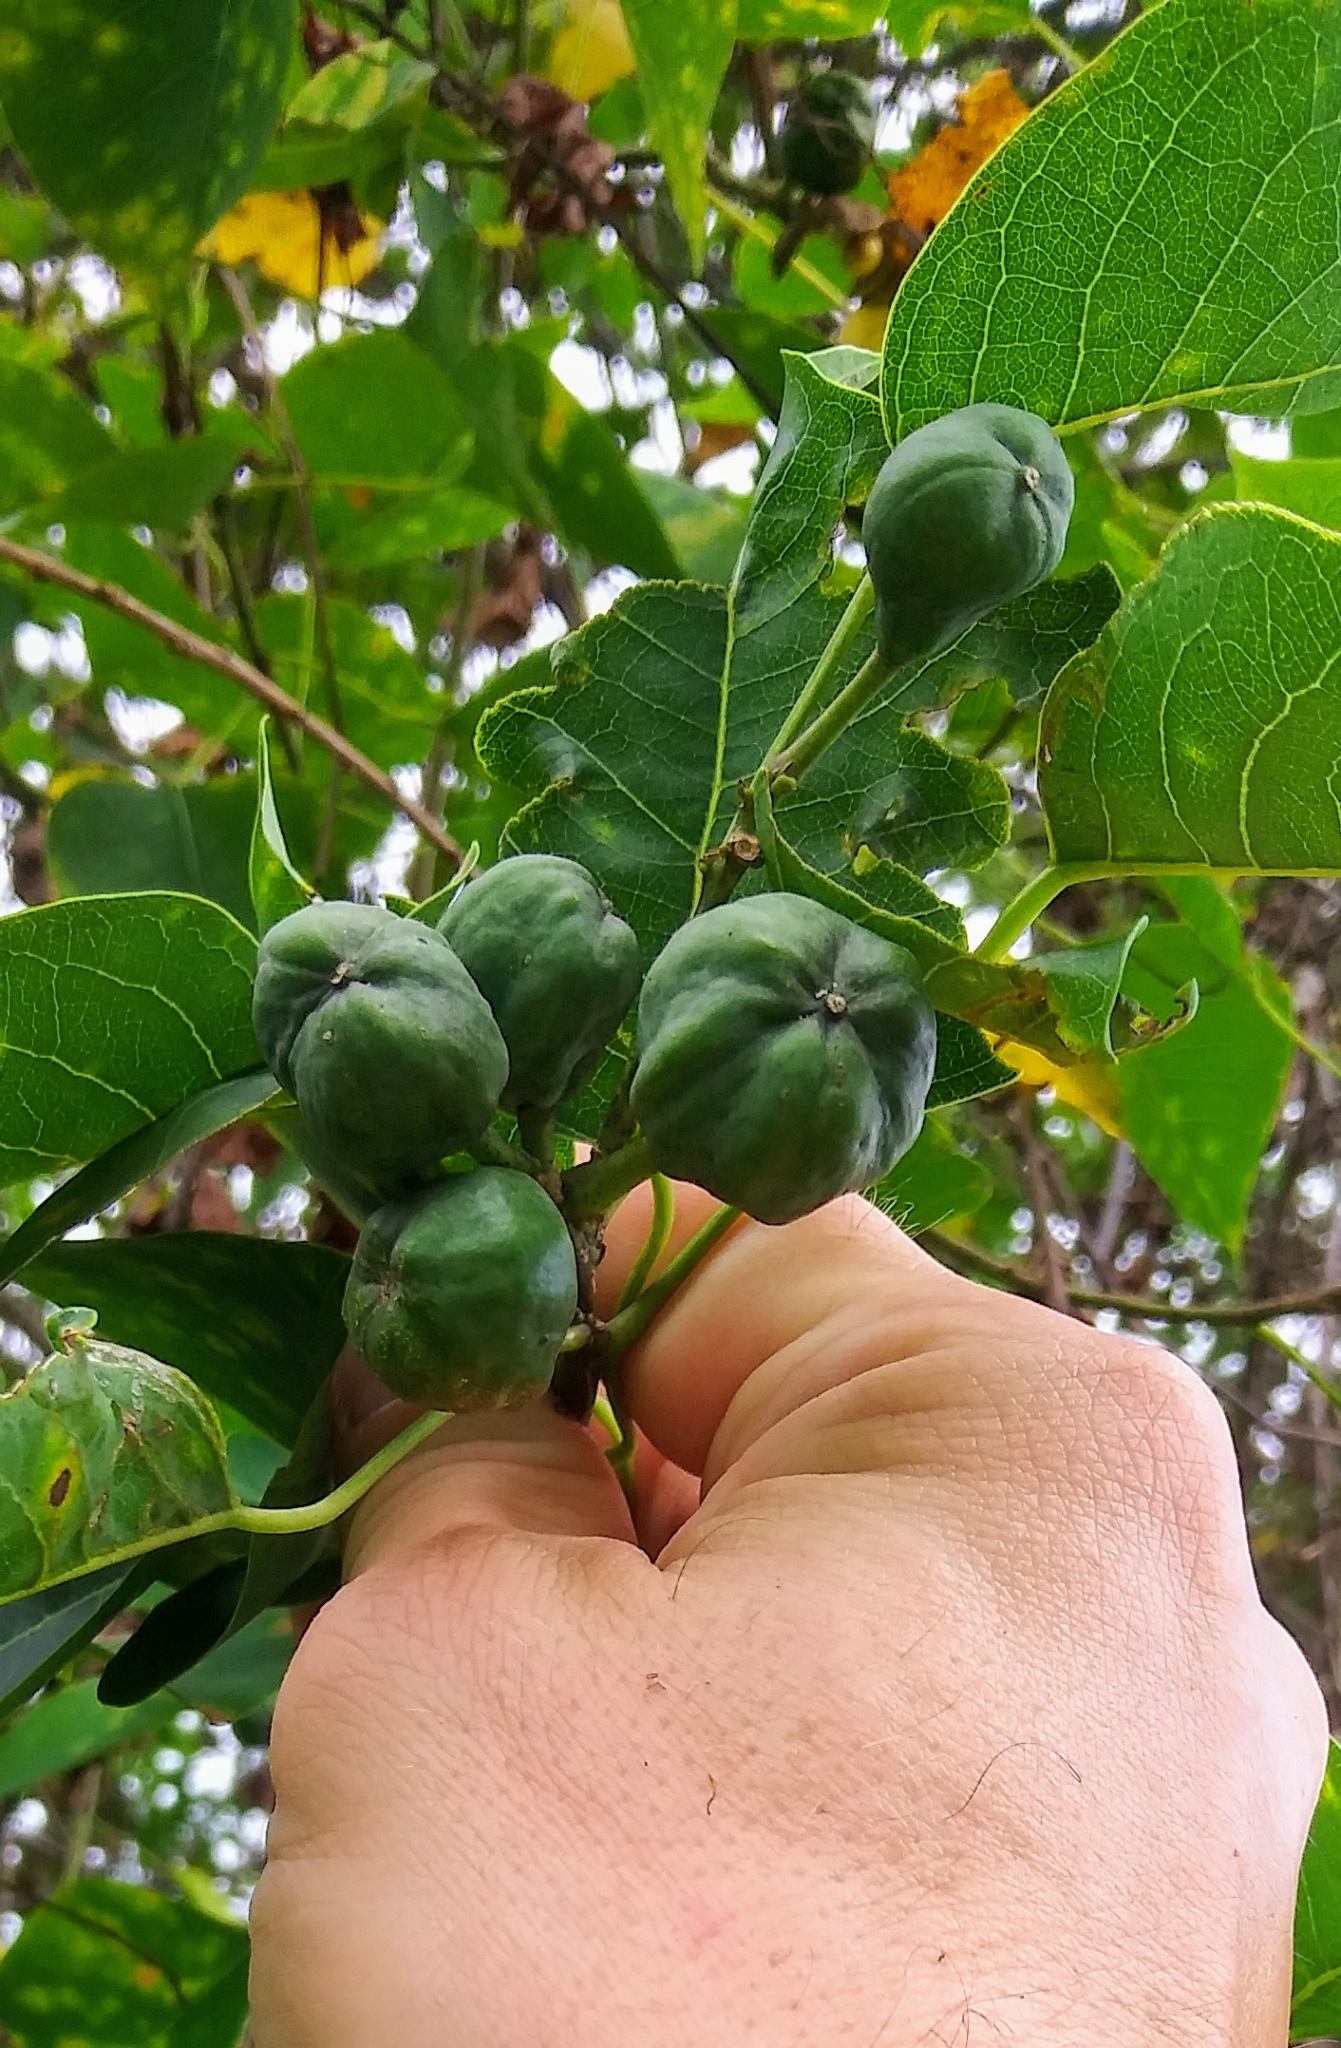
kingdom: Plantae
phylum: Tracheophyta
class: Magnoliopsida
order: Malpighiales
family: Euphorbiaceae
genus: Triadica
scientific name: Triadica sebifera
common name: Chinese tallow
